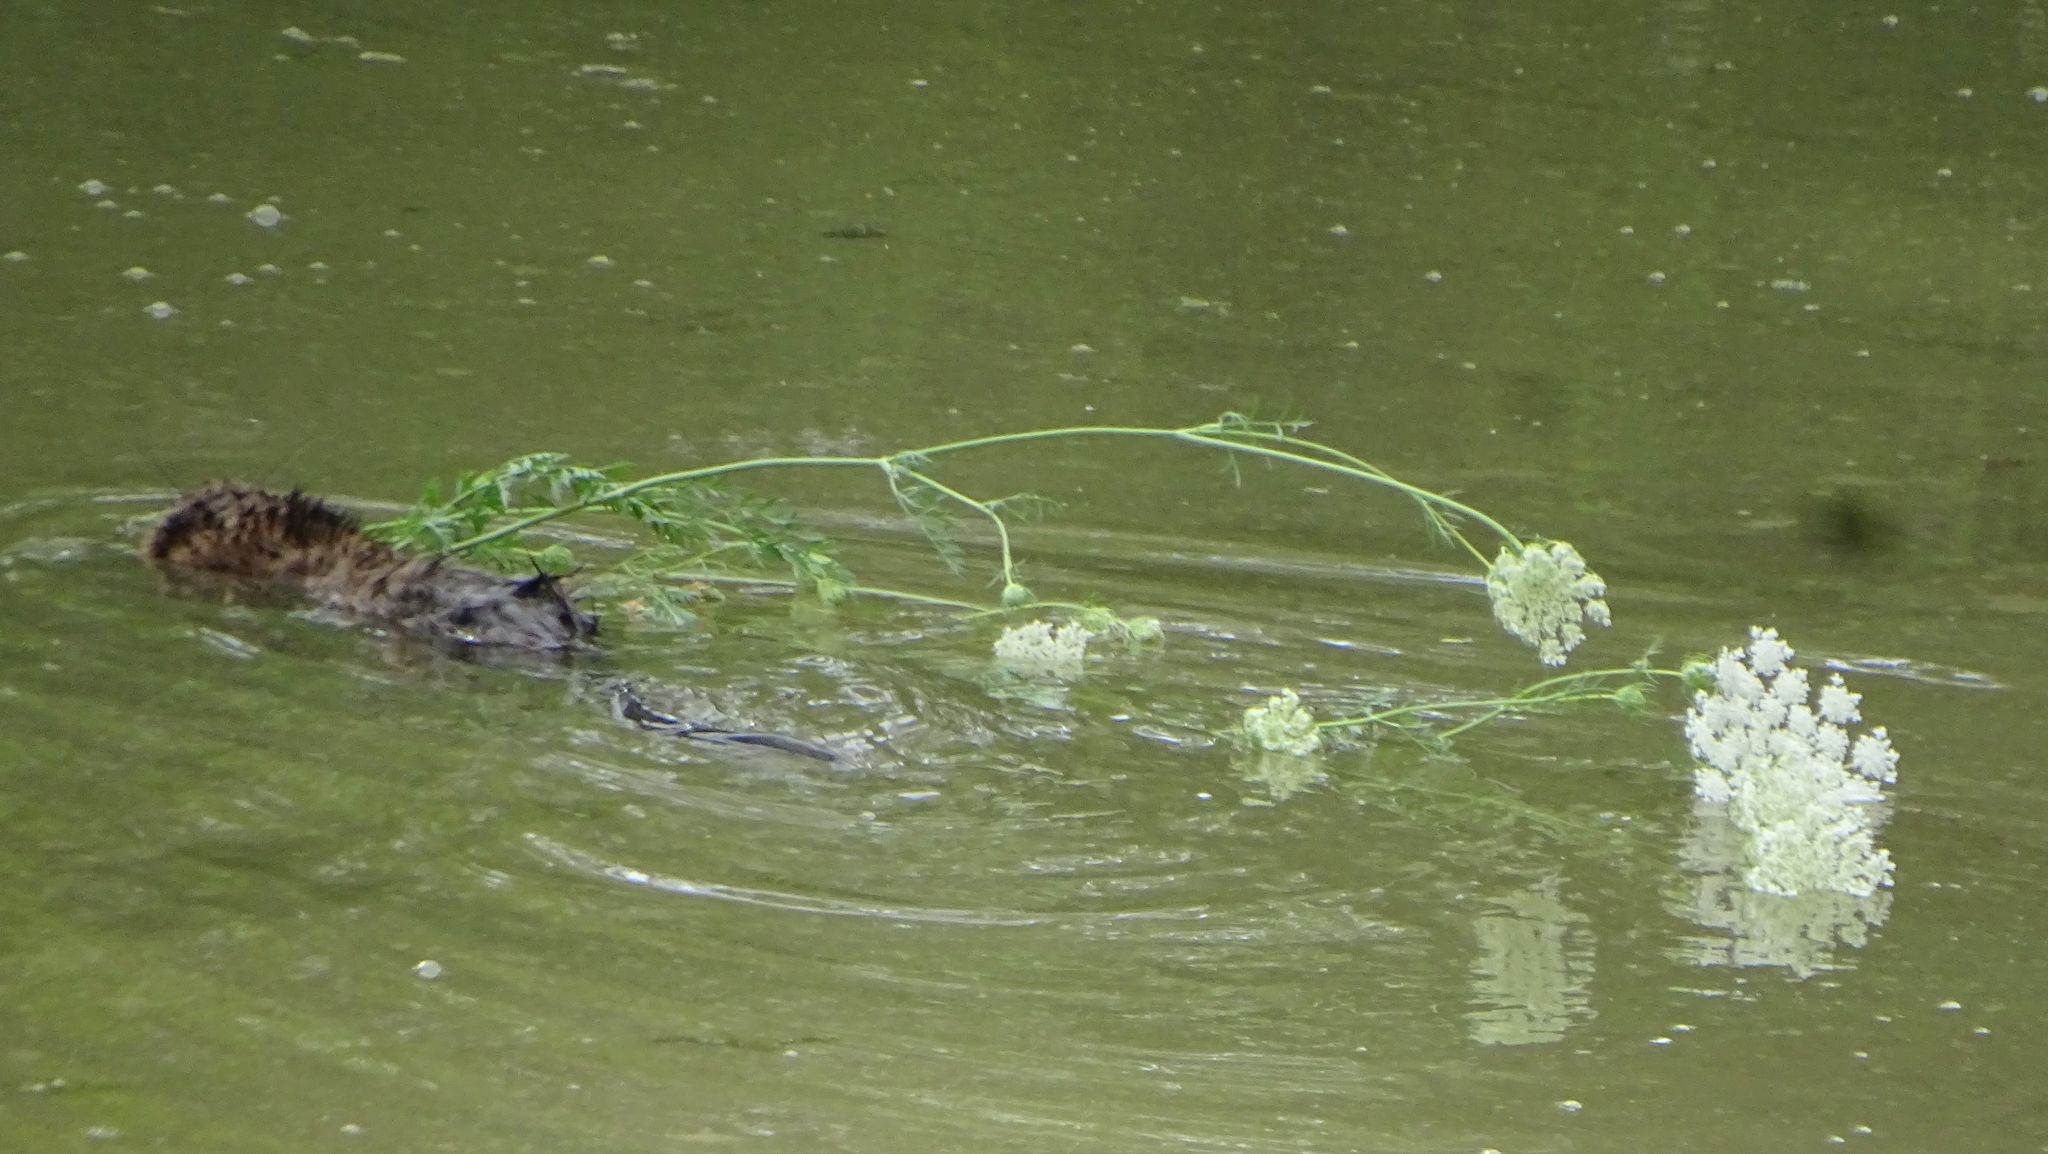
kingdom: Animalia
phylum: Chordata
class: Mammalia
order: Rodentia
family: Cricetidae
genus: Ondatra
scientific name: Ondatra zibethicus
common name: Muskrat
